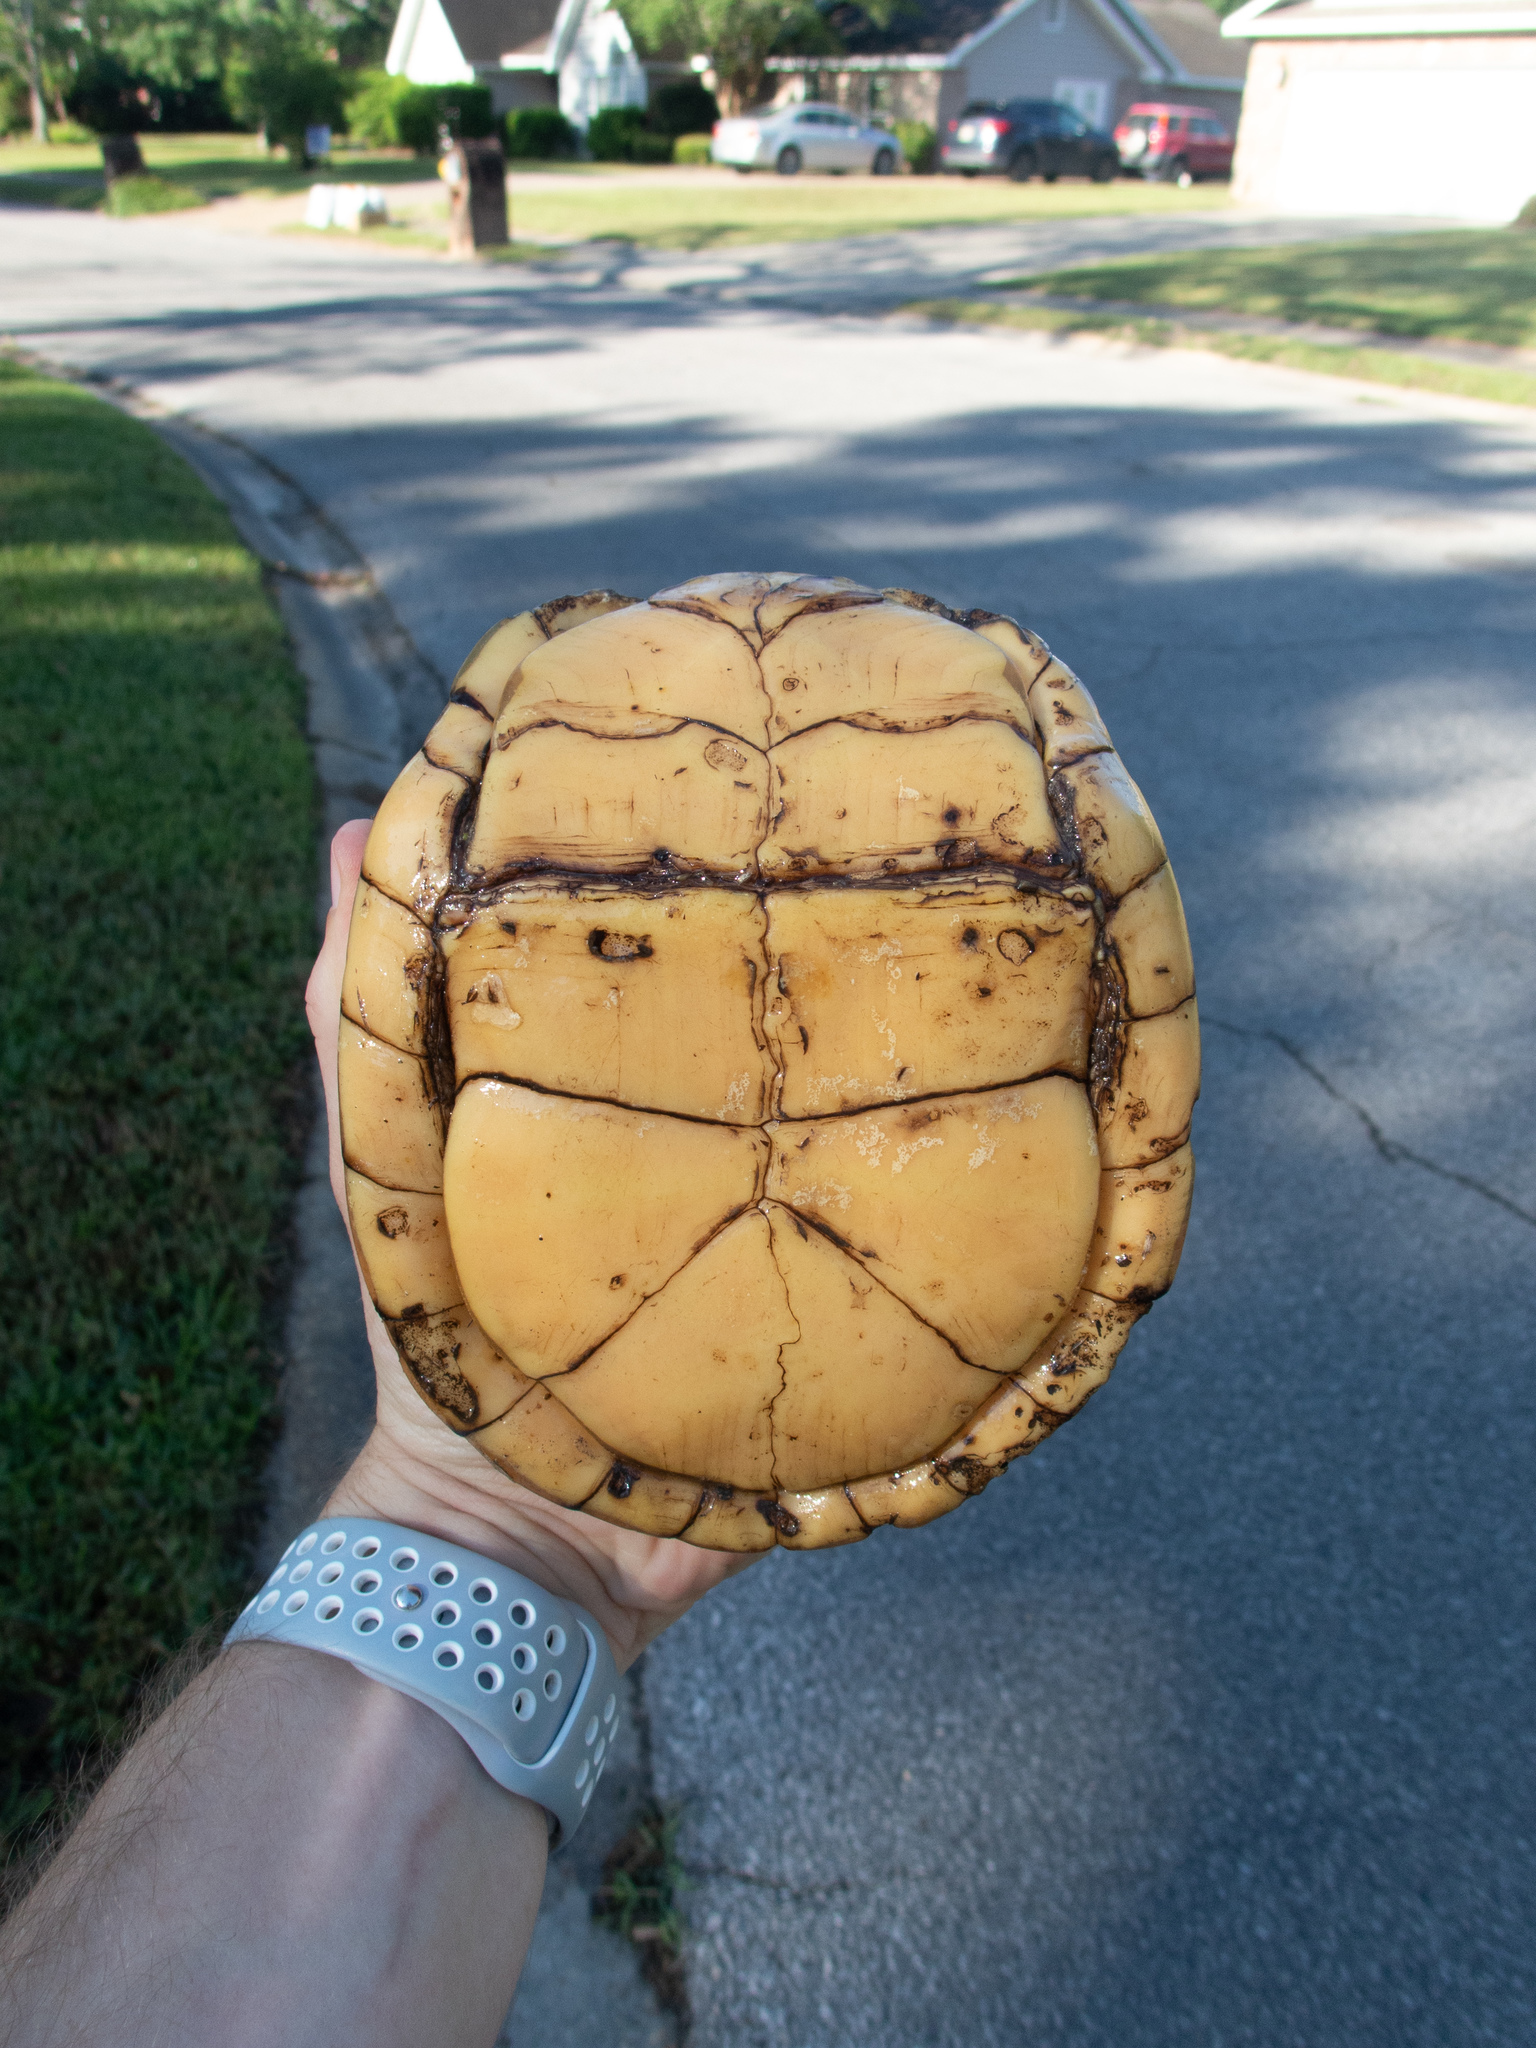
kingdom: Animalia
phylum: Chordata
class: Testudines
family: Emydidae
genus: Terrapene
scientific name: Terrapene carolina
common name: Common box turtle
